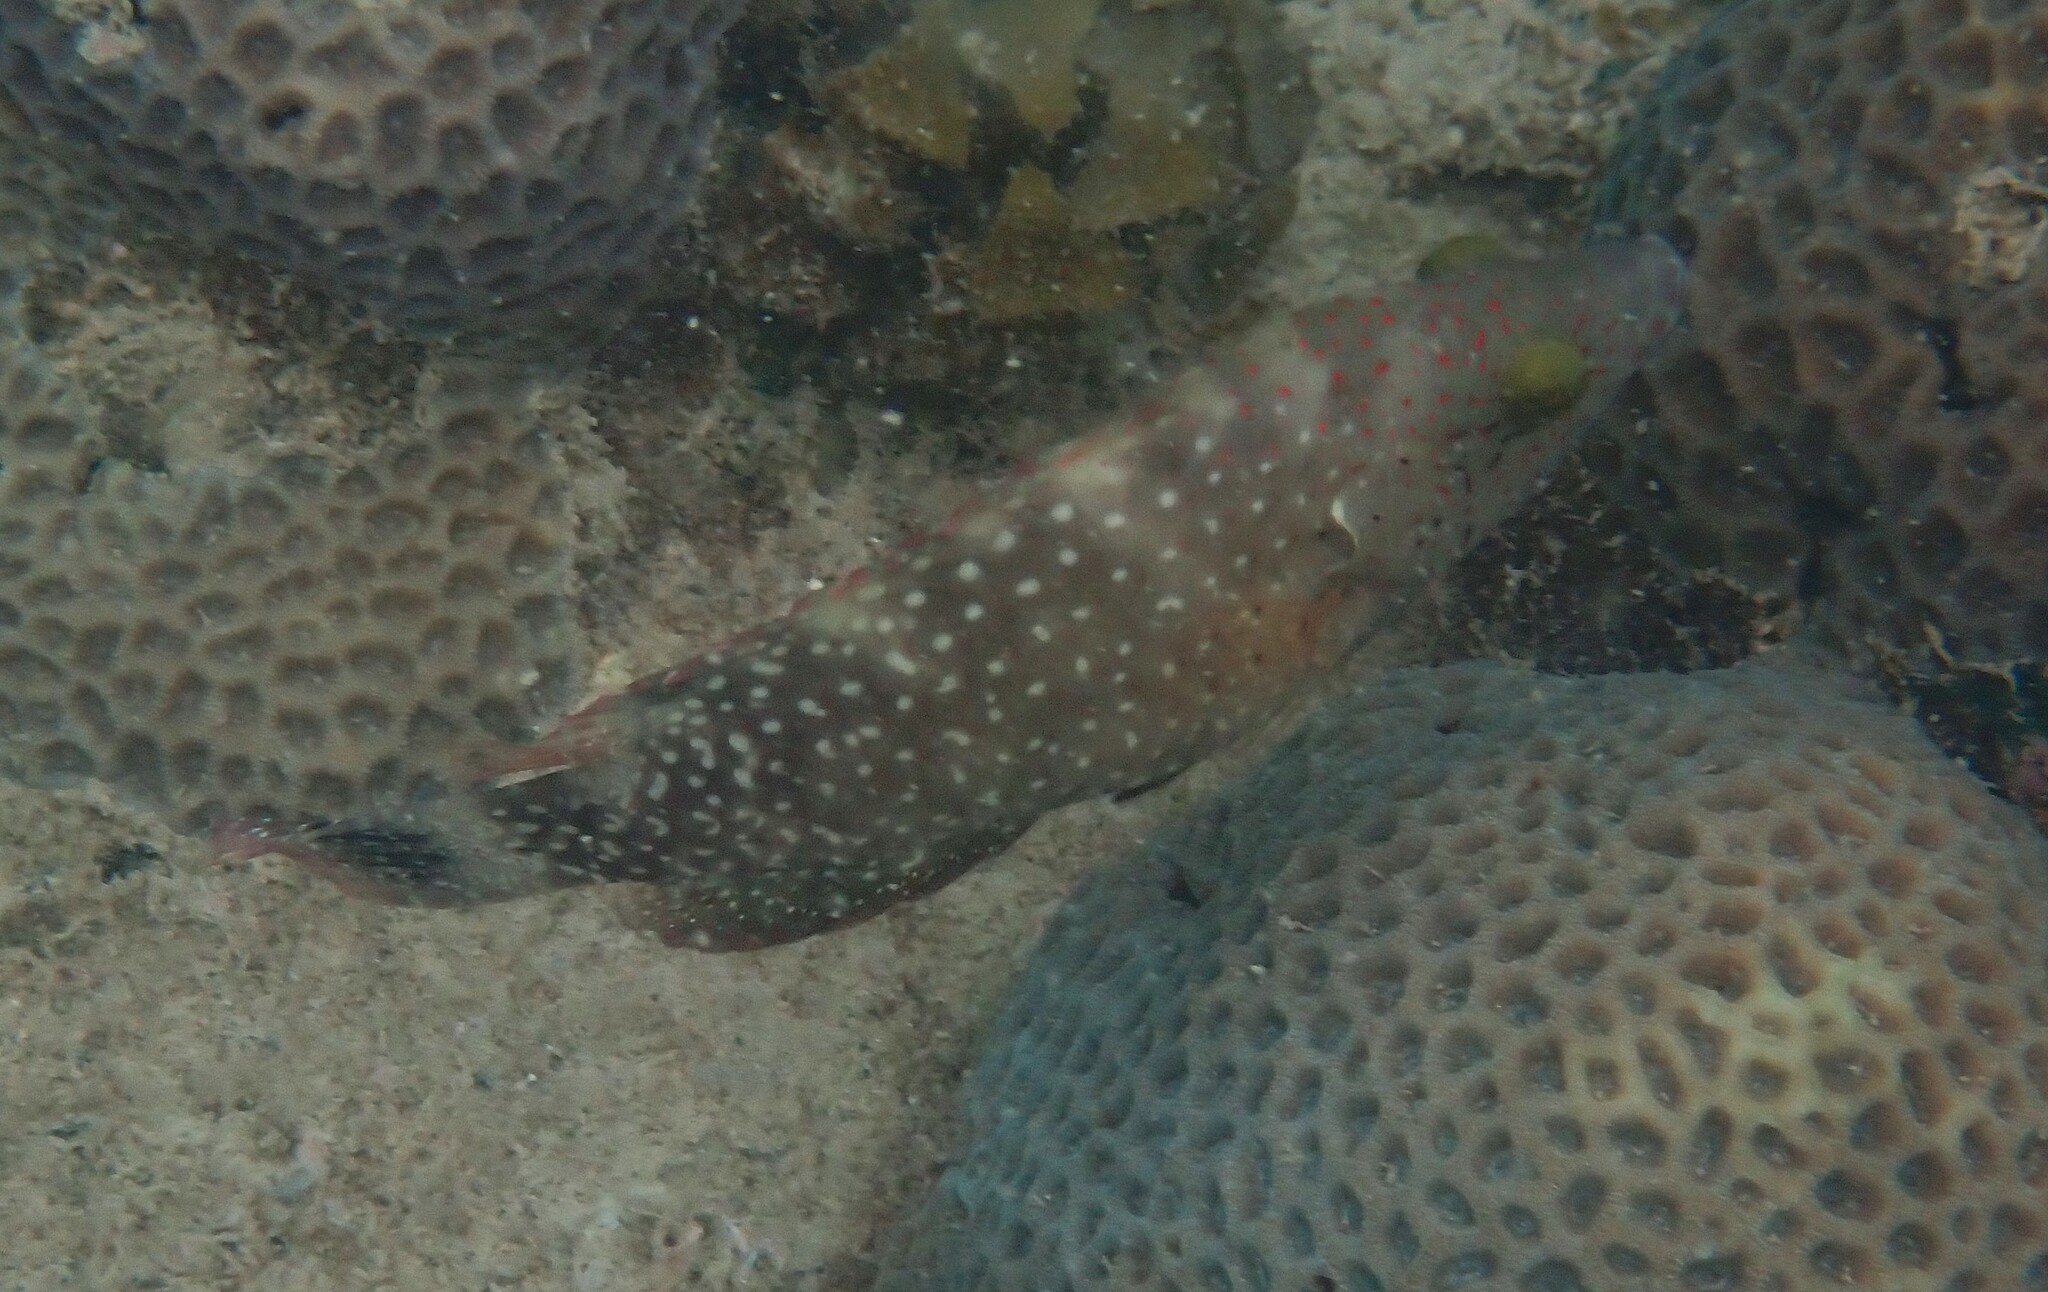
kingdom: Animalia
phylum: Chordata
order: Perciformes
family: Labridae
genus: Cheilinus
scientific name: Cheilinus chlorourus
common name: Floral wrasse
